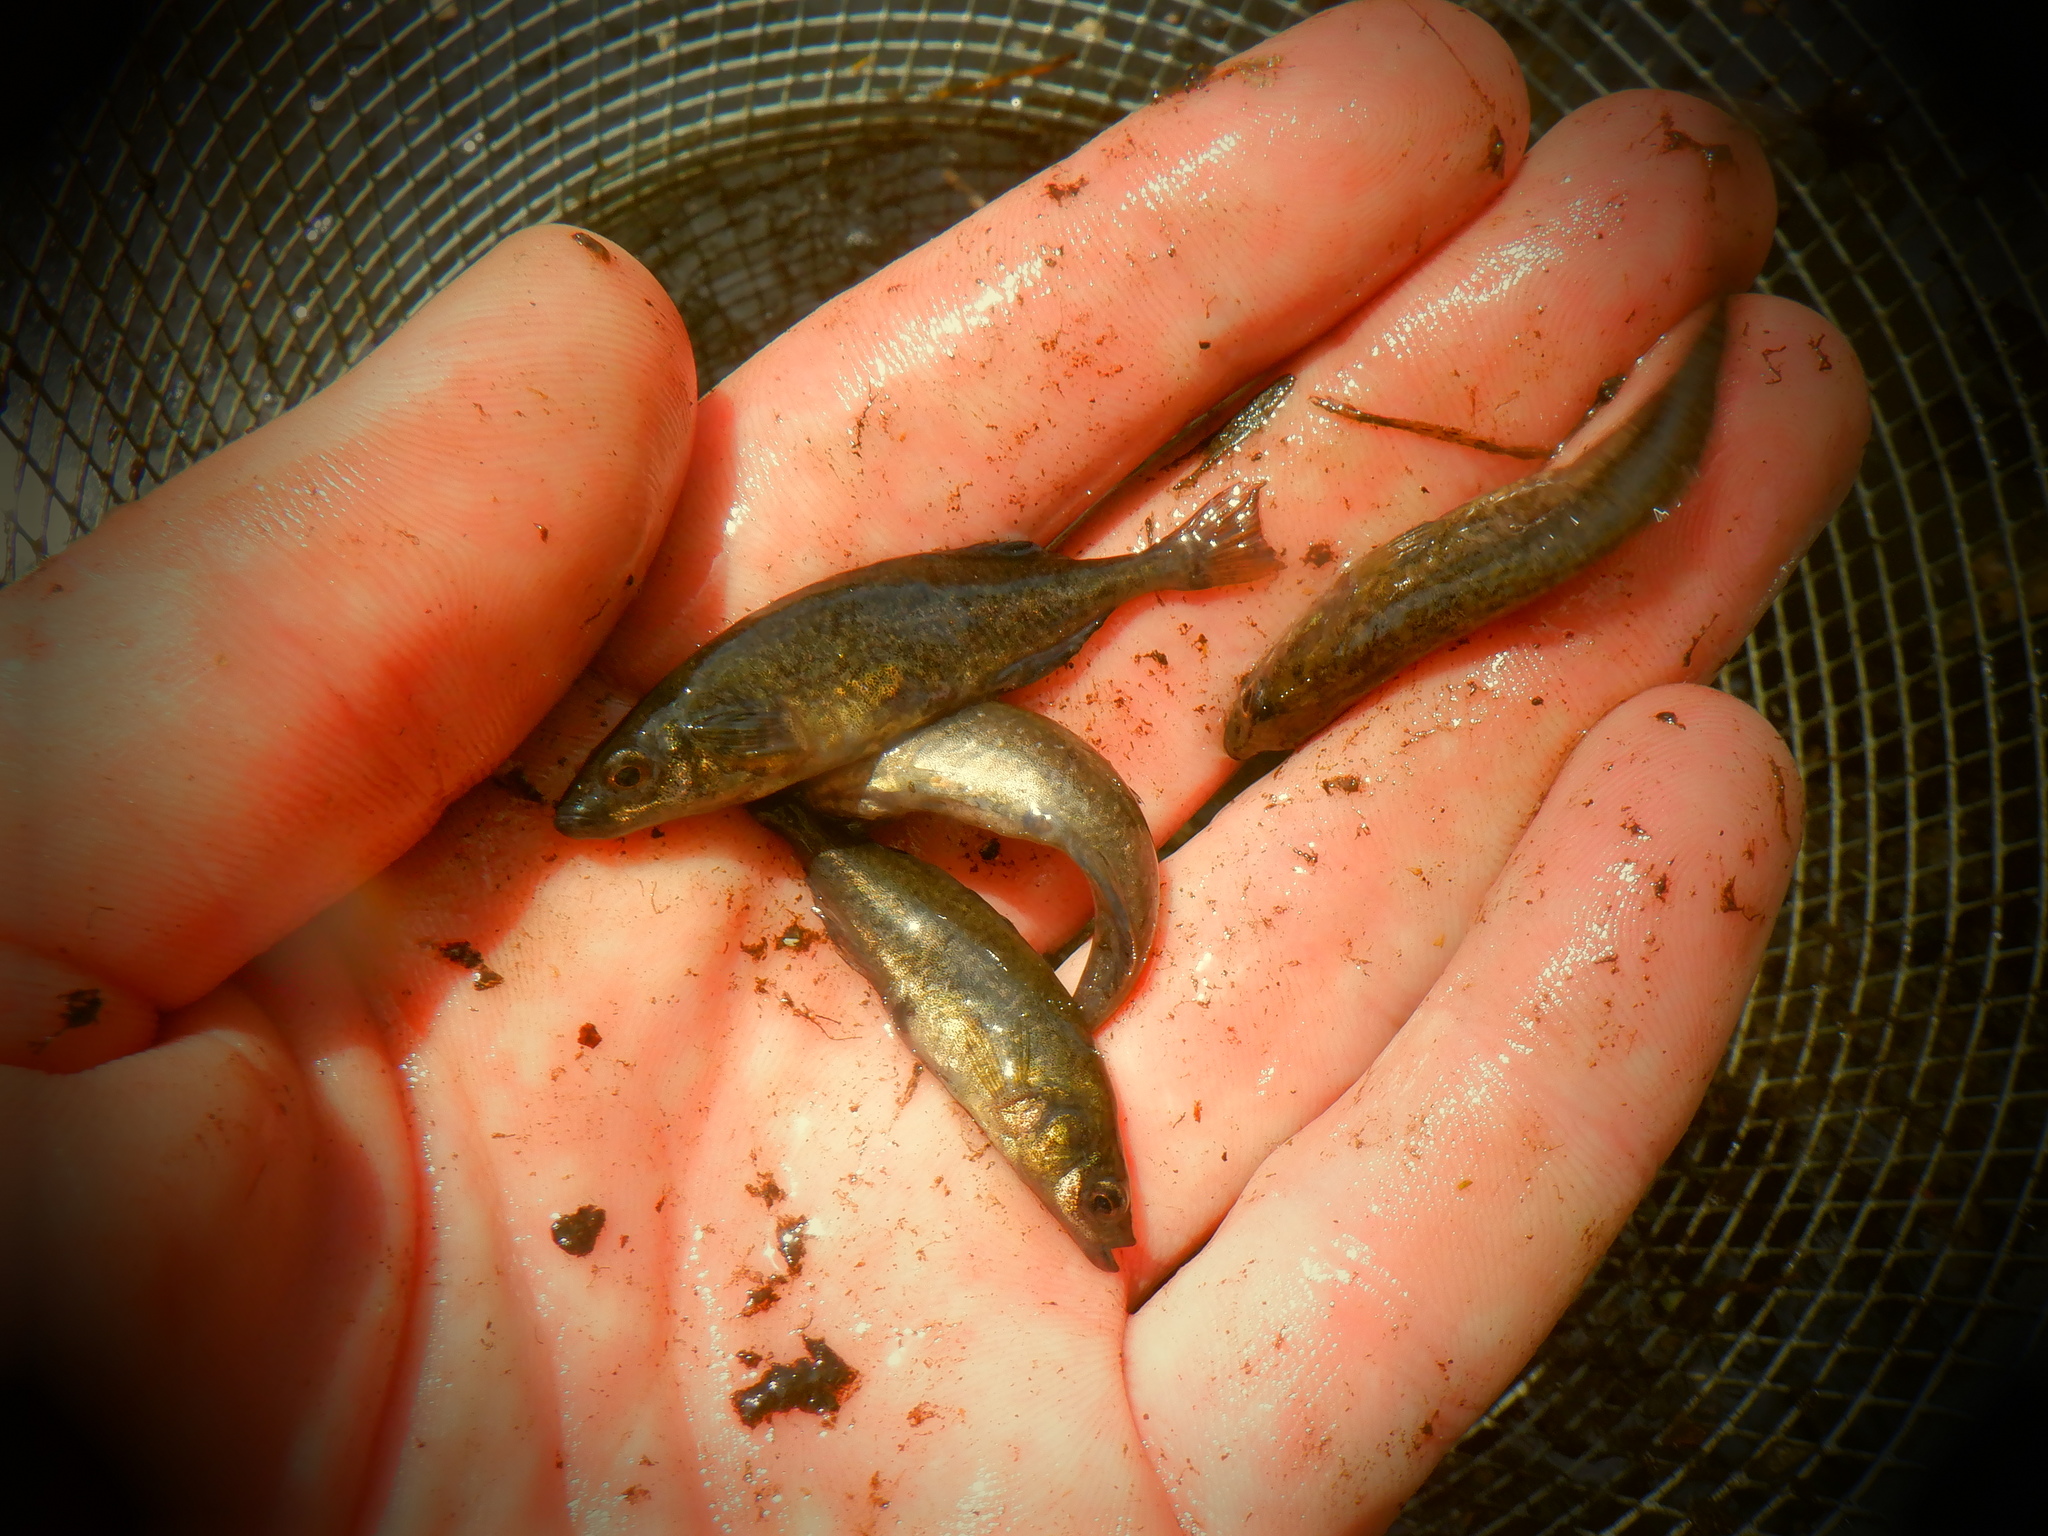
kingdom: Animalia
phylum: Chordata
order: Gasterosteiformes
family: Gasterosteidae
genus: Culaea
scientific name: Culaea inconstans
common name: Brook stickleback
